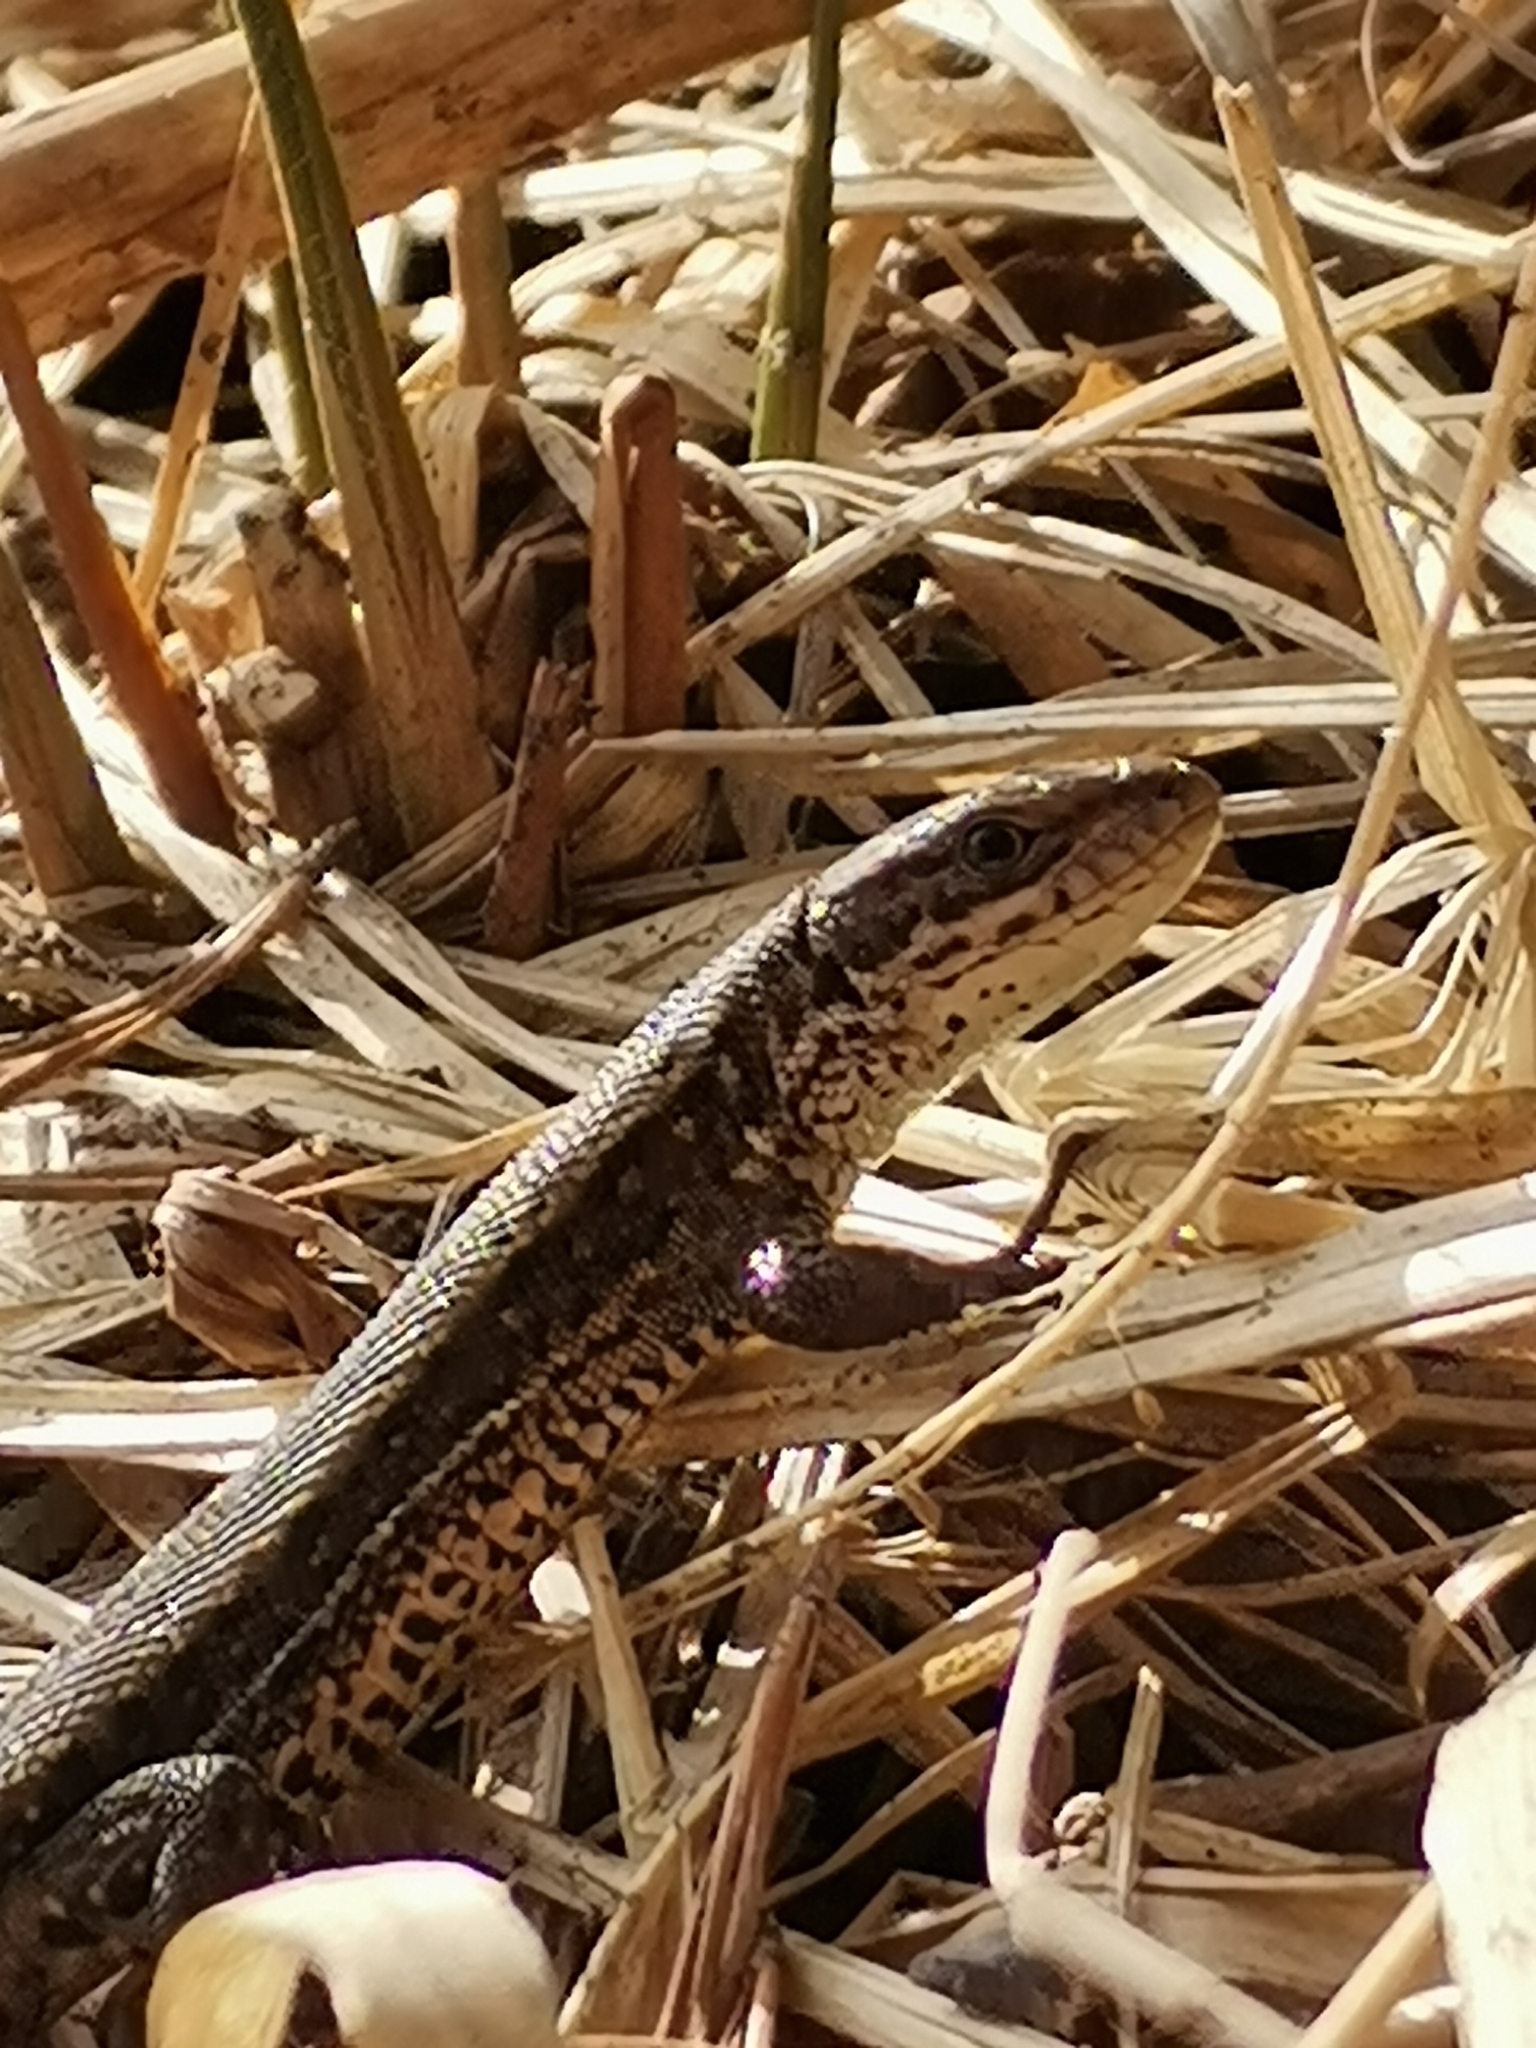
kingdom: Animalia
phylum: Chordata
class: Squamata
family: Lacertidae
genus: Zootoca
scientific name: Zootoca vivipara
